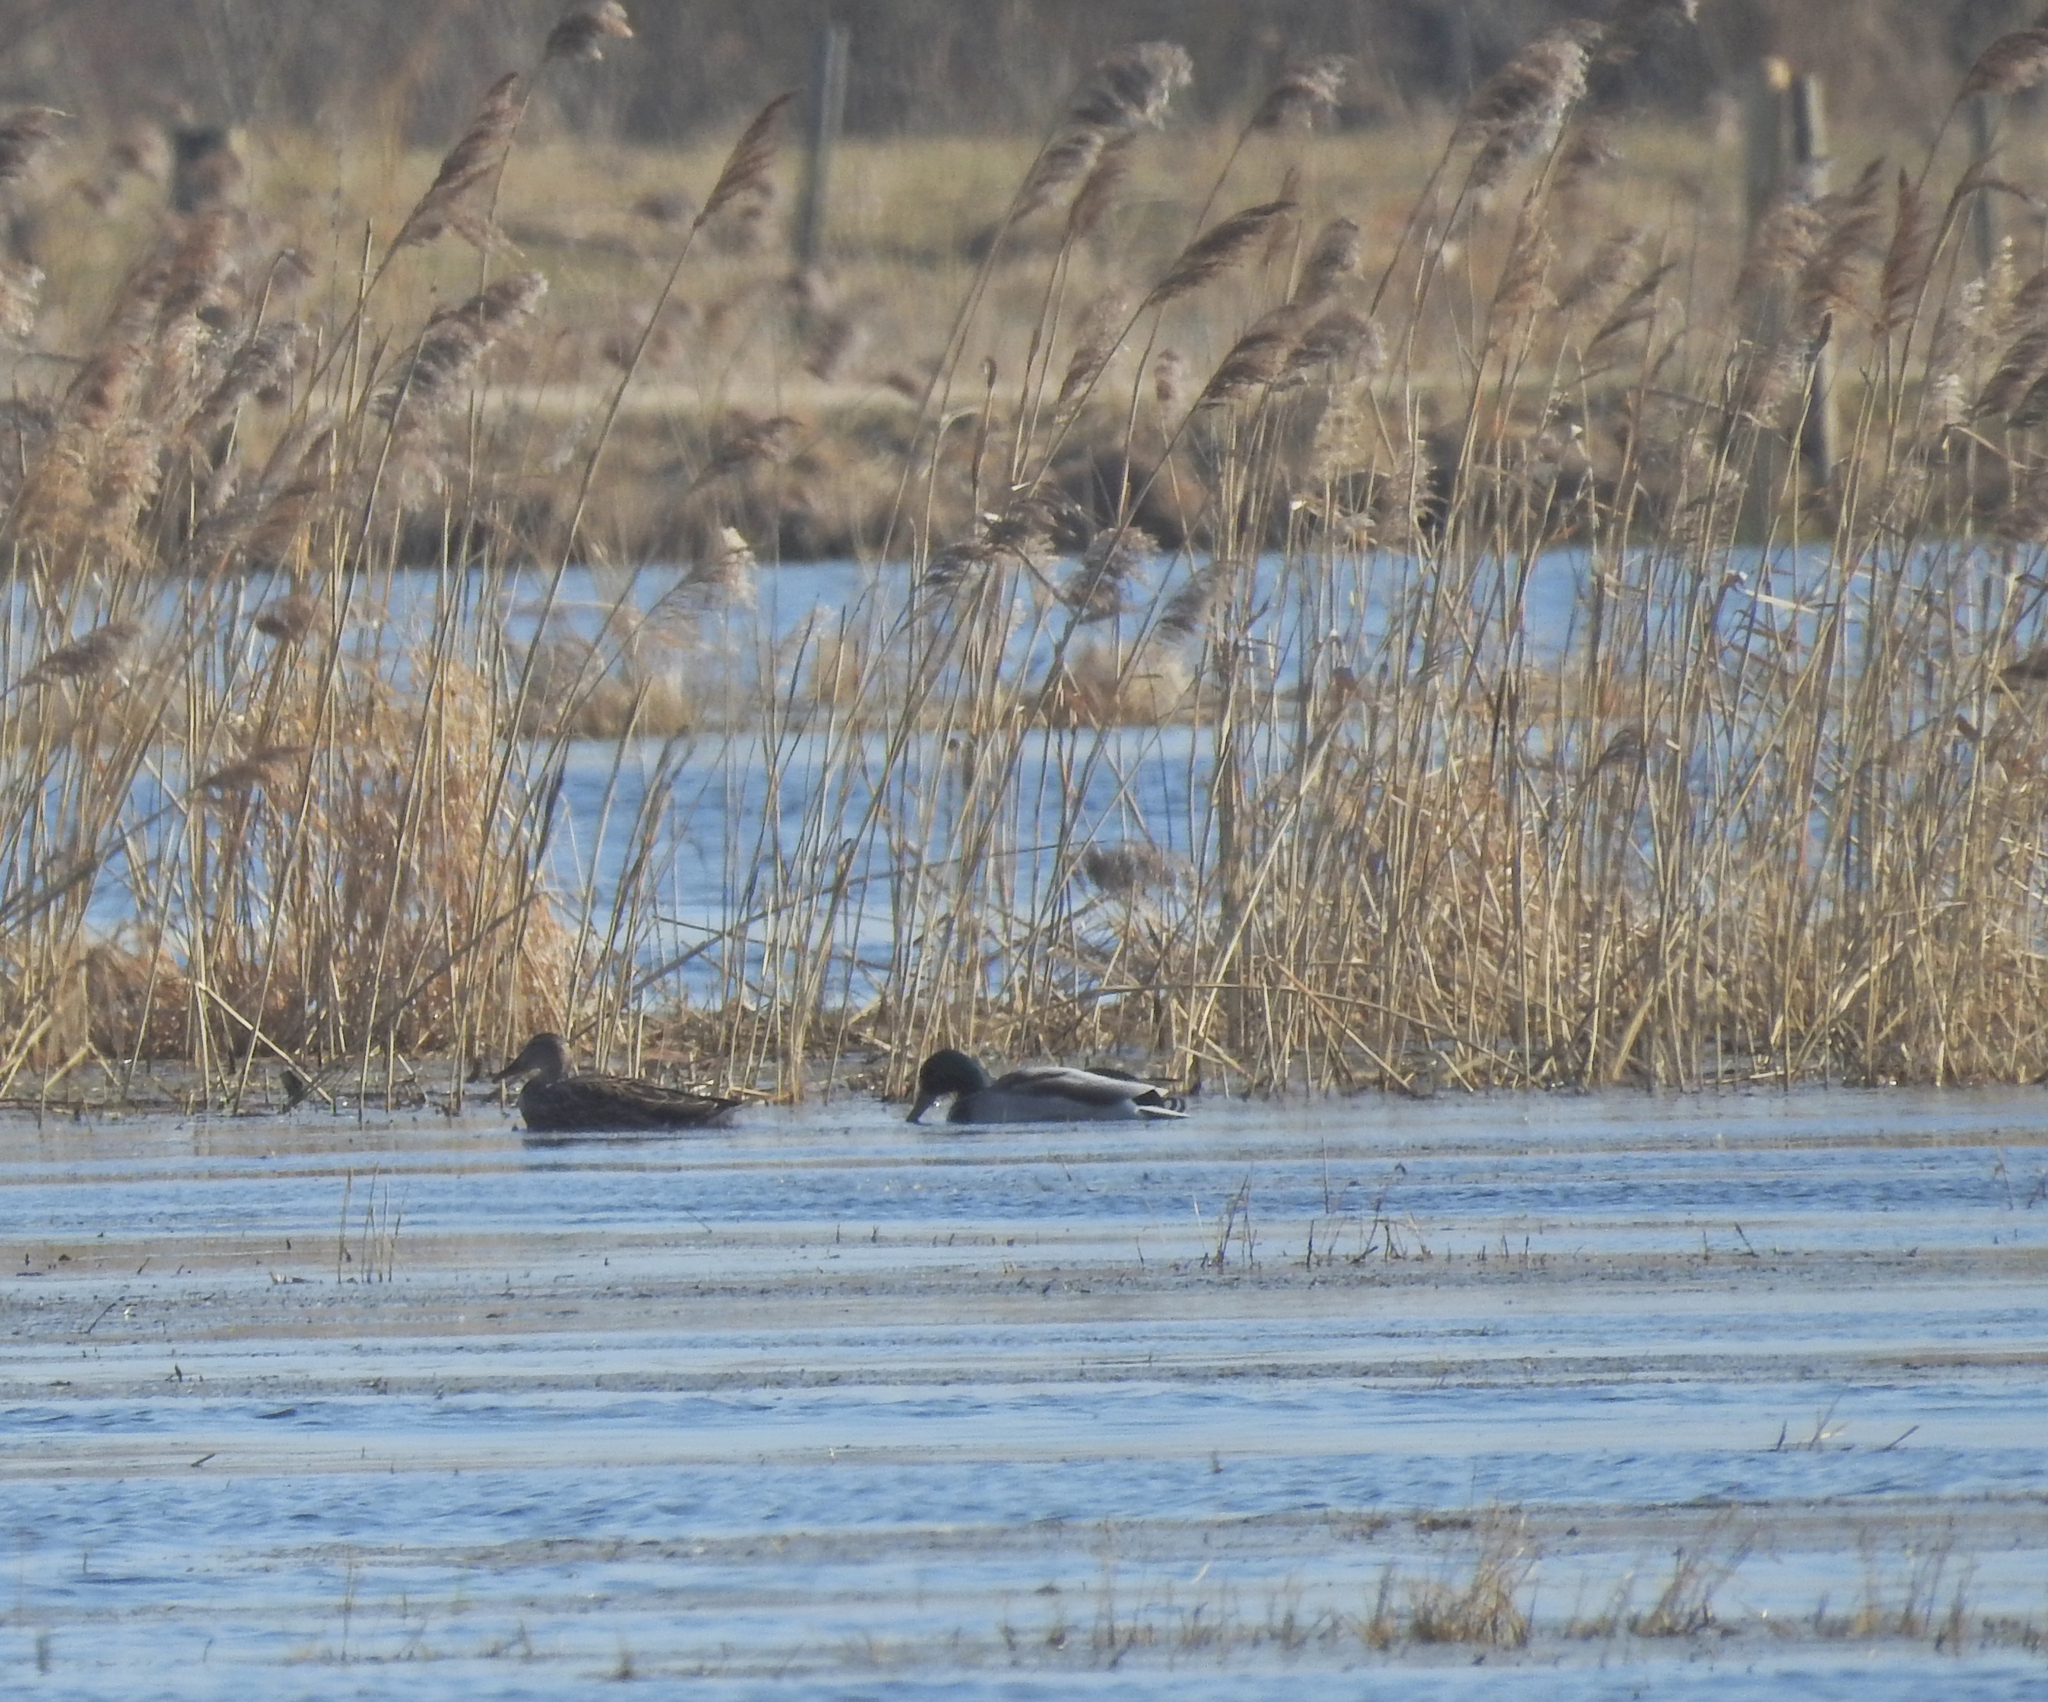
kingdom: Animalia
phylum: Chordata
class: Aves
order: Anseriformes
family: Anatidae
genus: Anas
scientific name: Anas platyrhynchos
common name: Mallard
